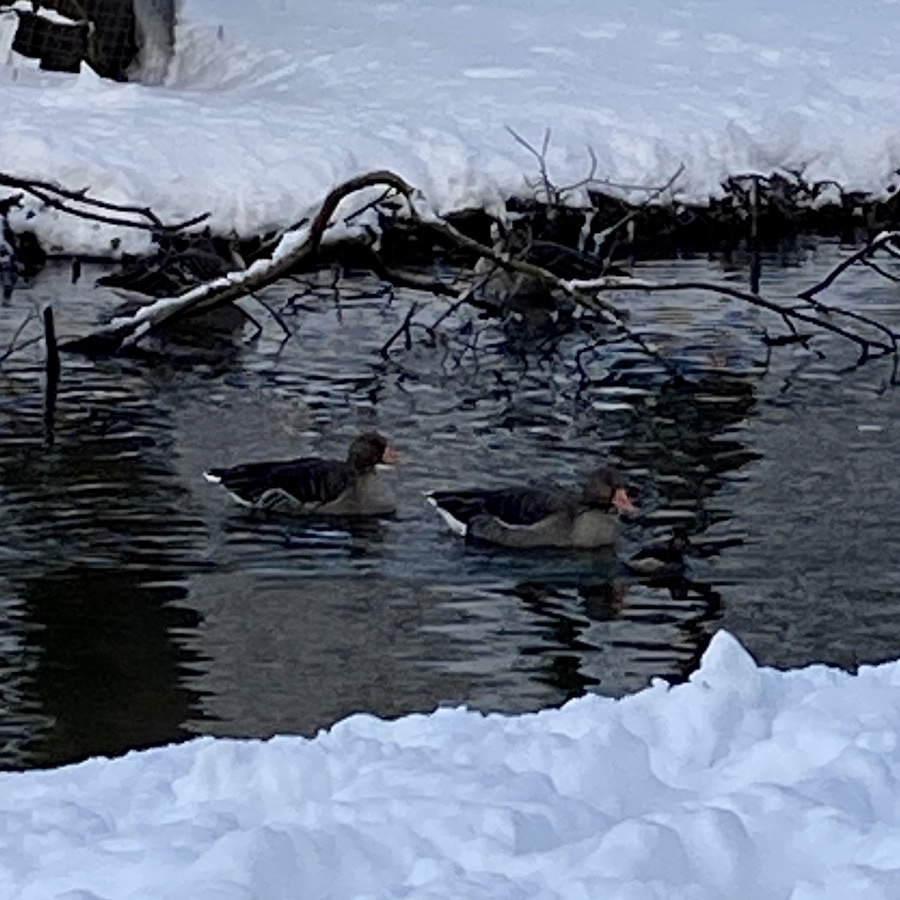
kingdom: Animalia
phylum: Chordata
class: Aves
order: Anseriformes
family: Anatidae
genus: Anser
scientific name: Anser anser
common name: Greylag goose
